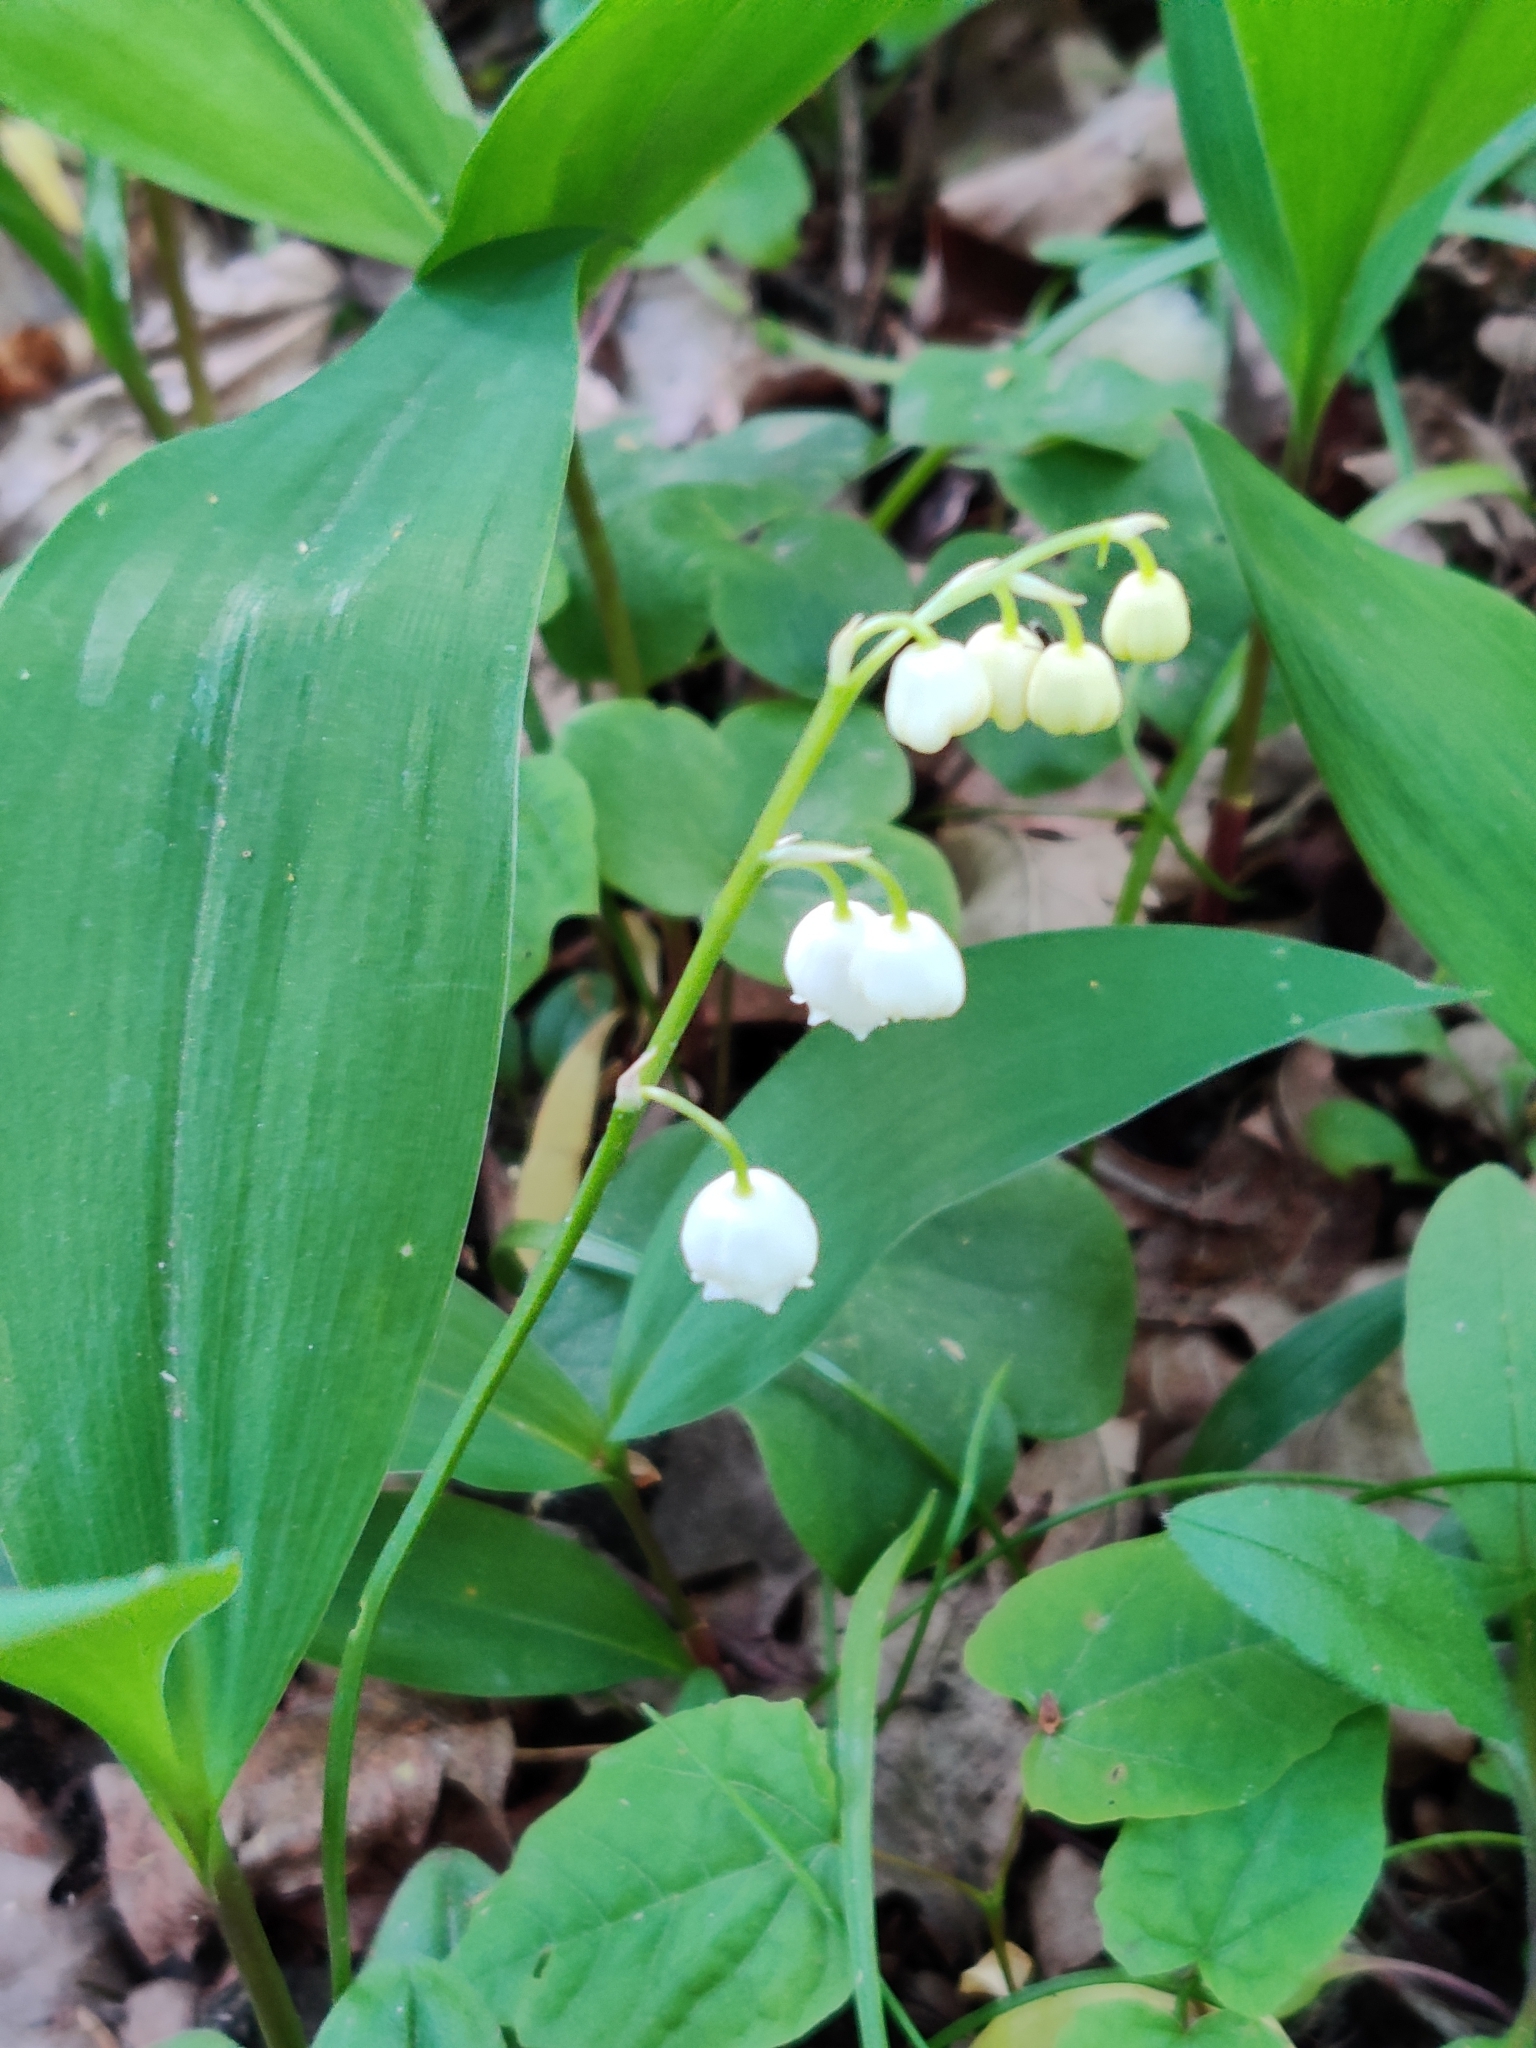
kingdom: Plantae
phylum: Tracheophyta
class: Liliopsida
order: Asparagales
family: Asparagaceae
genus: Convallaria
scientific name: Convallaria majalis
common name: Lily-of-the-valley
